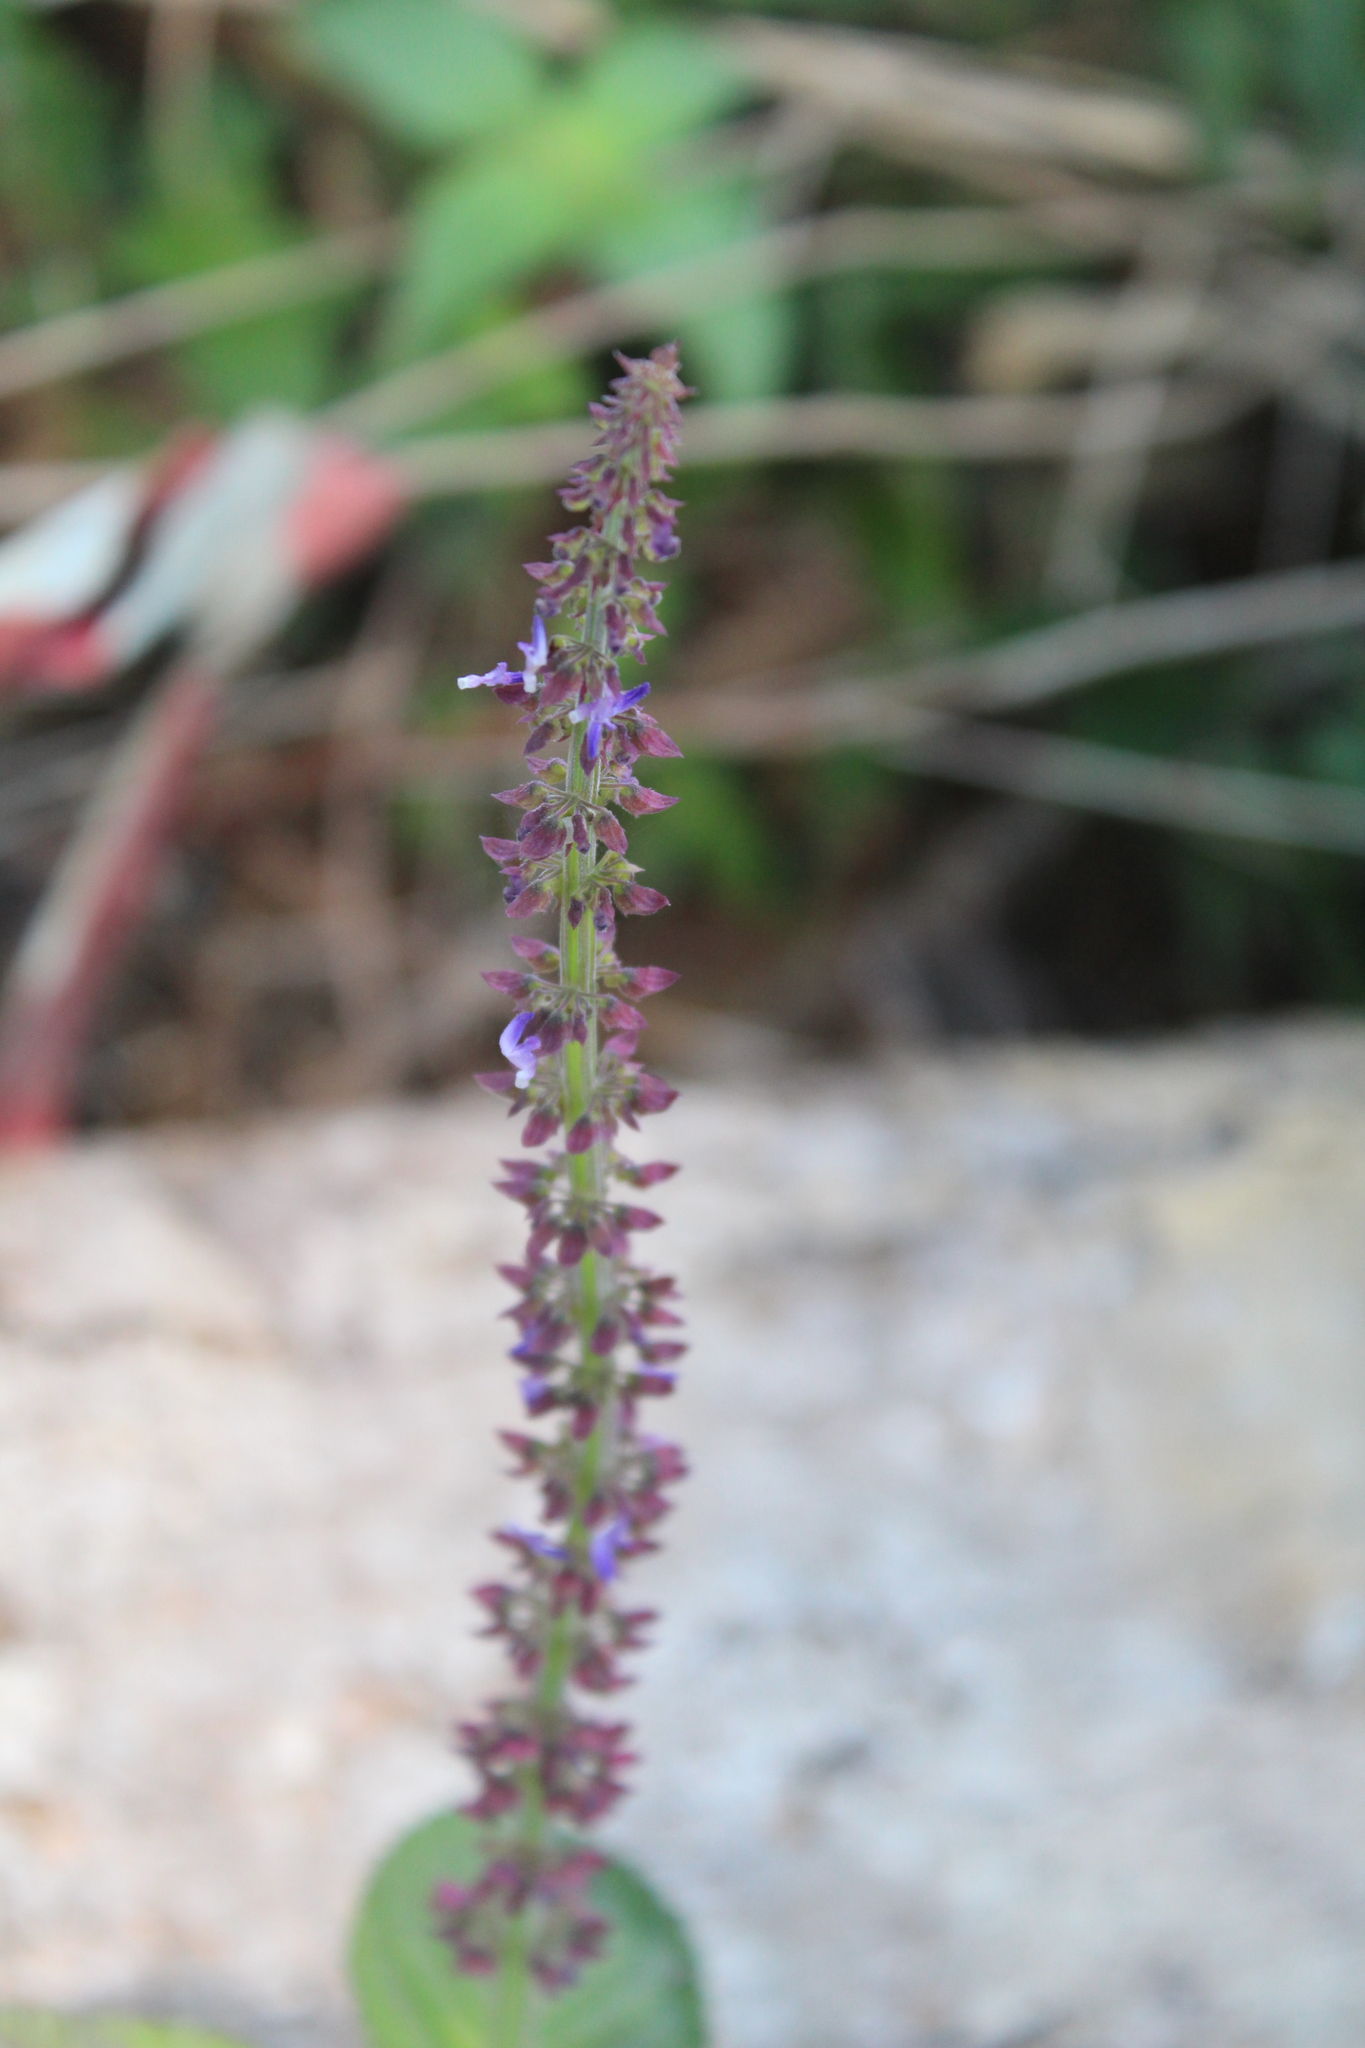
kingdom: Plantae
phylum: Tracheophyta
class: Magnoliopsida
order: Lamiales
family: Lamiaceae
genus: Coleus
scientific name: Coleus monostachyus
